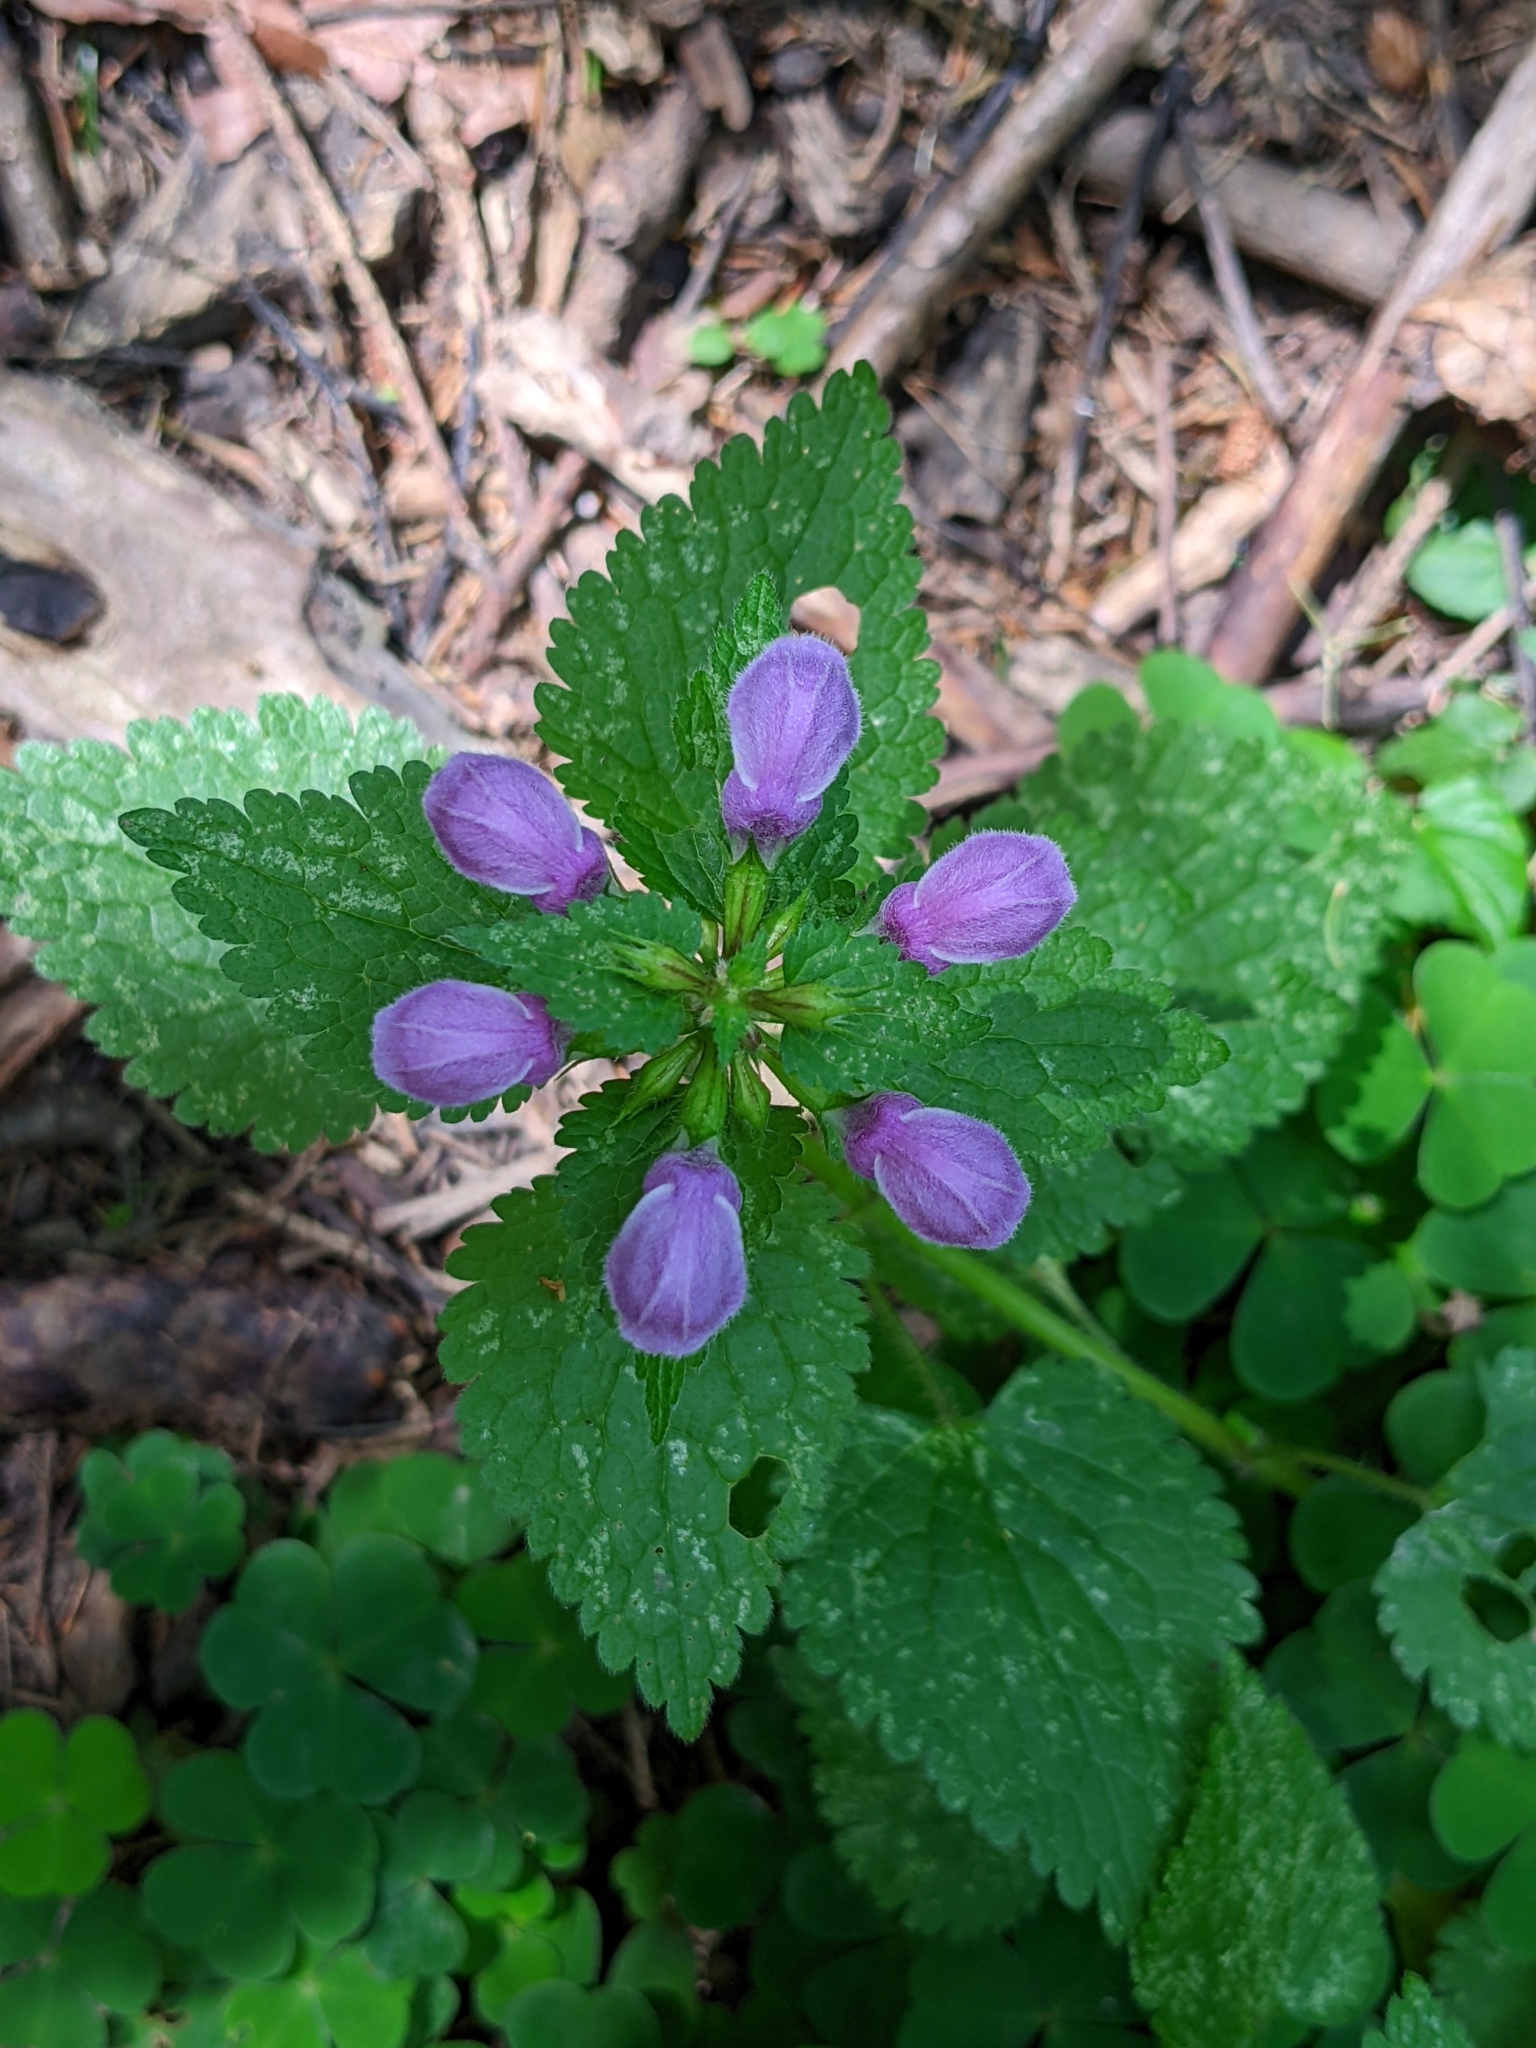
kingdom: Plantae
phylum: Tracheophyta
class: Magnoliopsida
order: Lamiales
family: Lamiaceae
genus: Lamium
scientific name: Lamium maculatum
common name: Spotted dead-nettle
